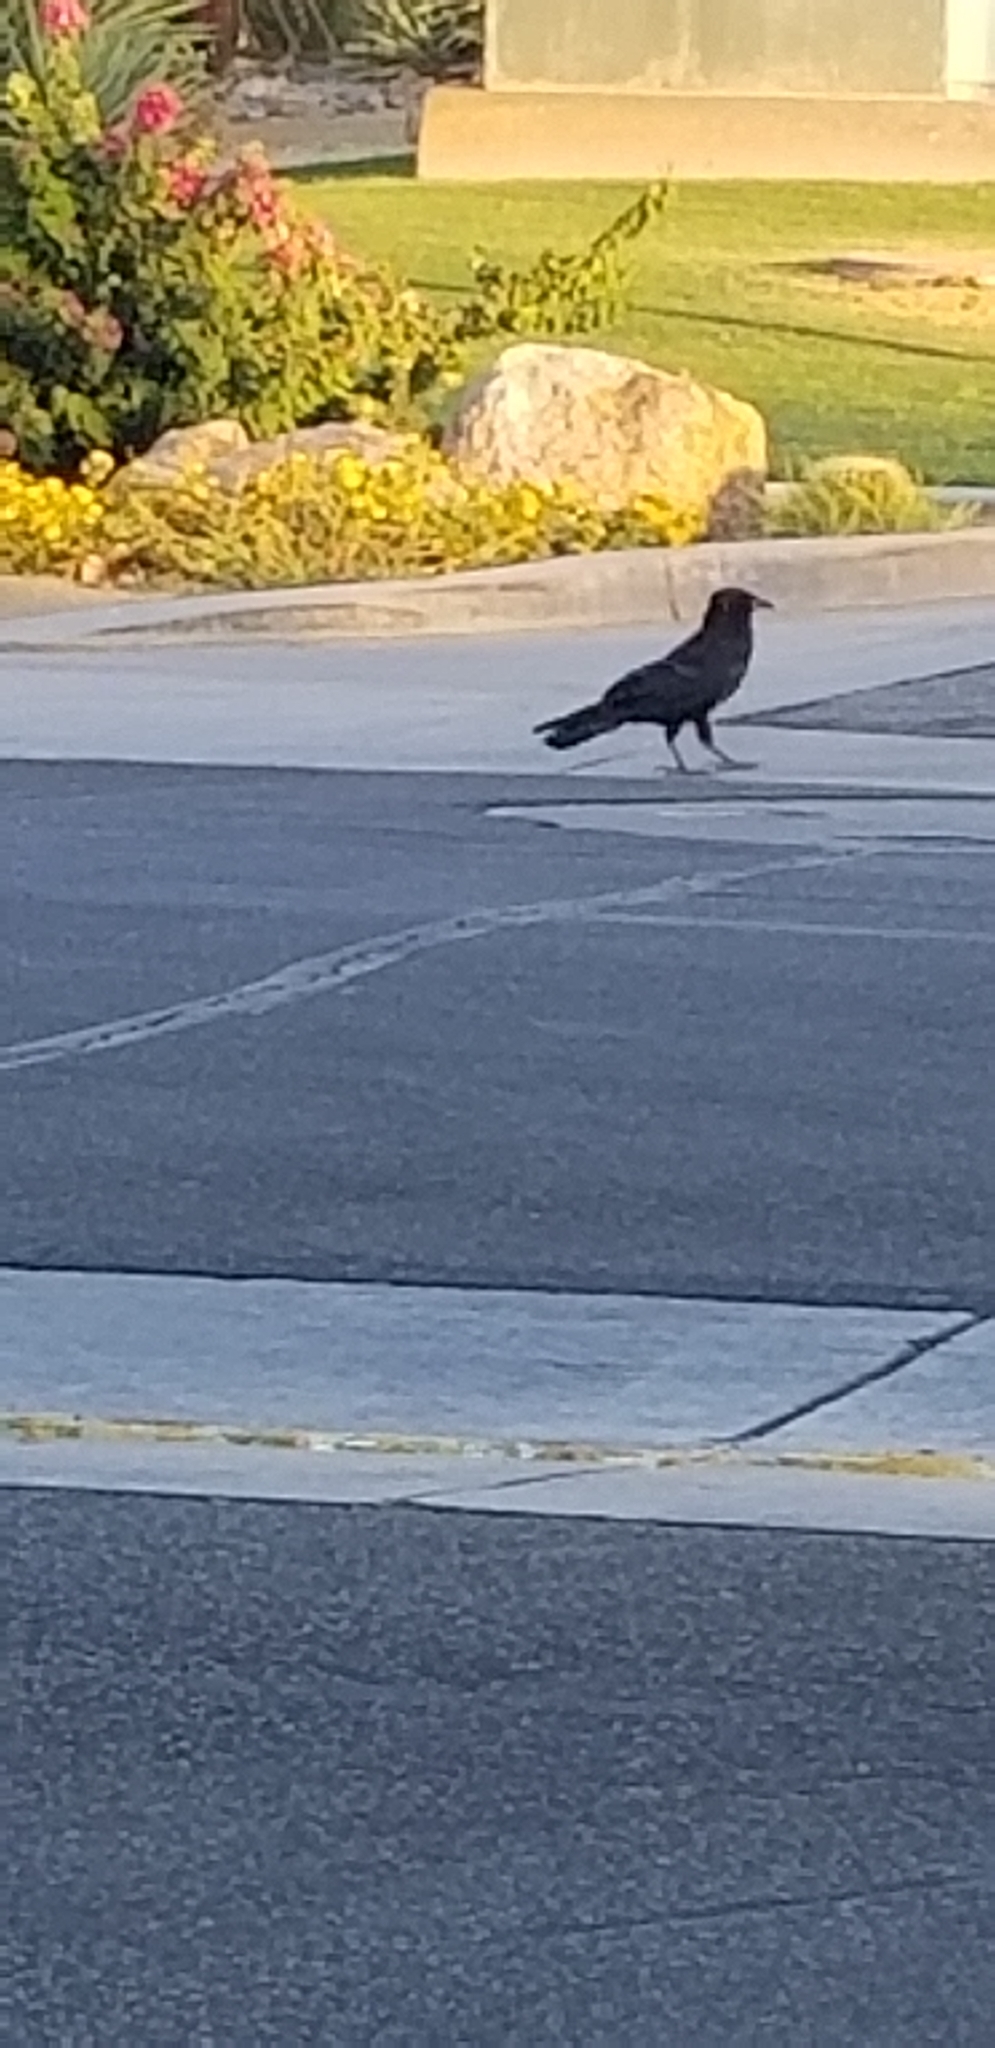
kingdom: Animalia
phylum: Chordata
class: Aves
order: Passeriformes
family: Corvidae
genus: Corvus
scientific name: Corvus corax
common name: Common raven
